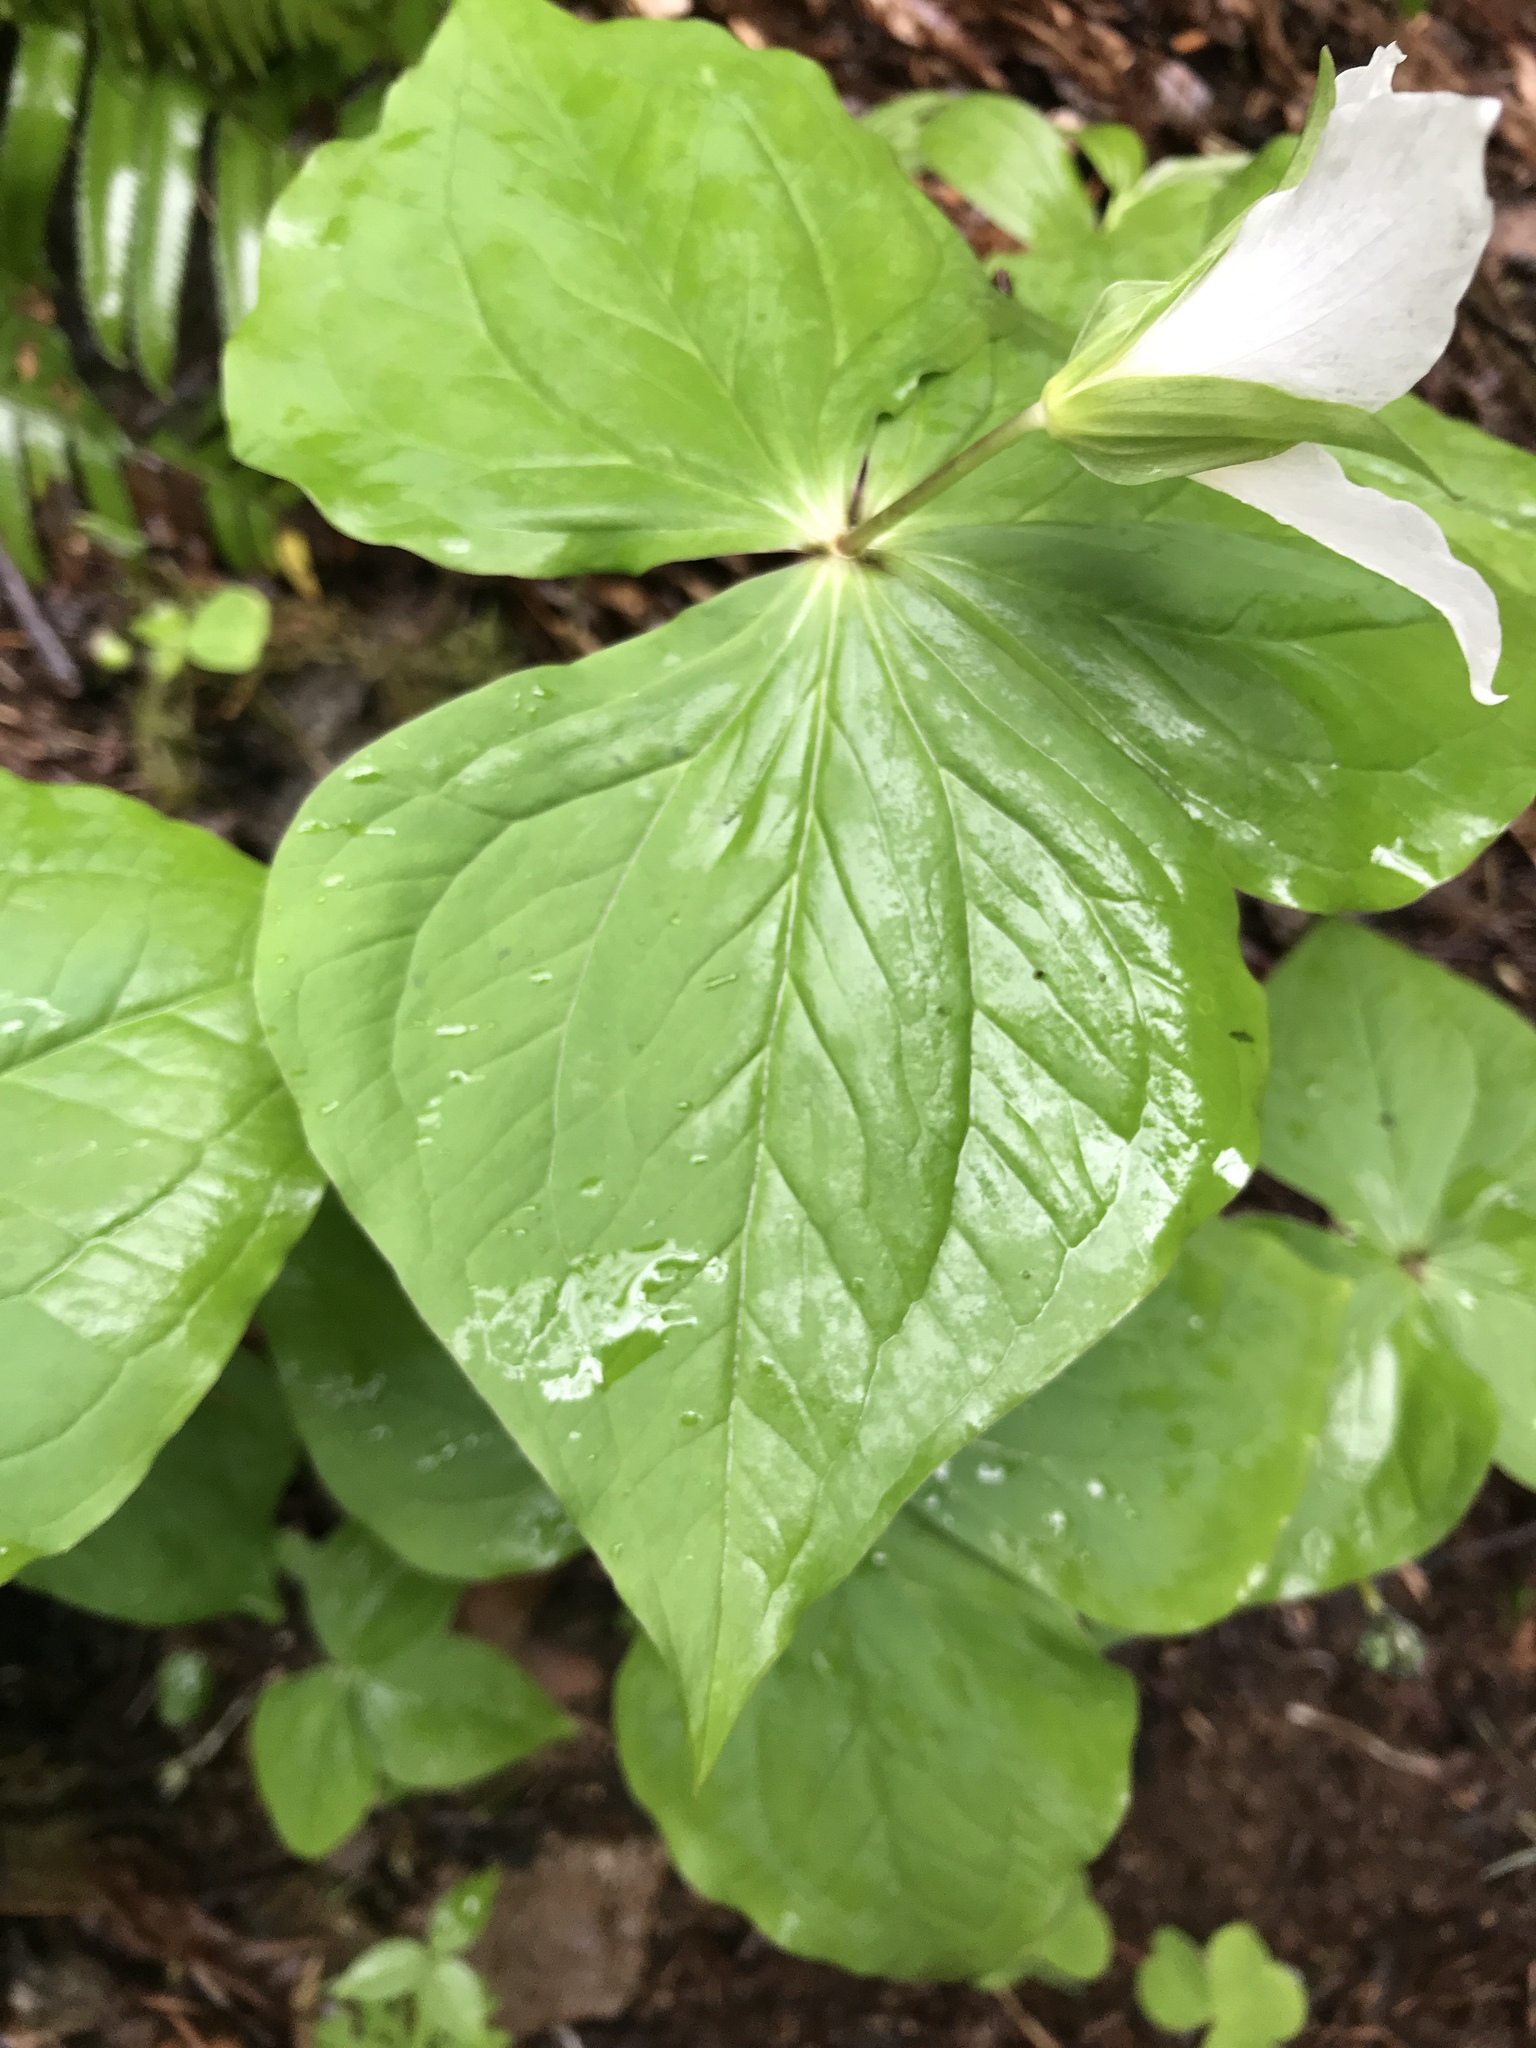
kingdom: Plantae
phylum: Tracheophyta
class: Liliopsida
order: Liliales
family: Melanthiaceae
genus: Trillium
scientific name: Trillium ovatum
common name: Pacific trillium
